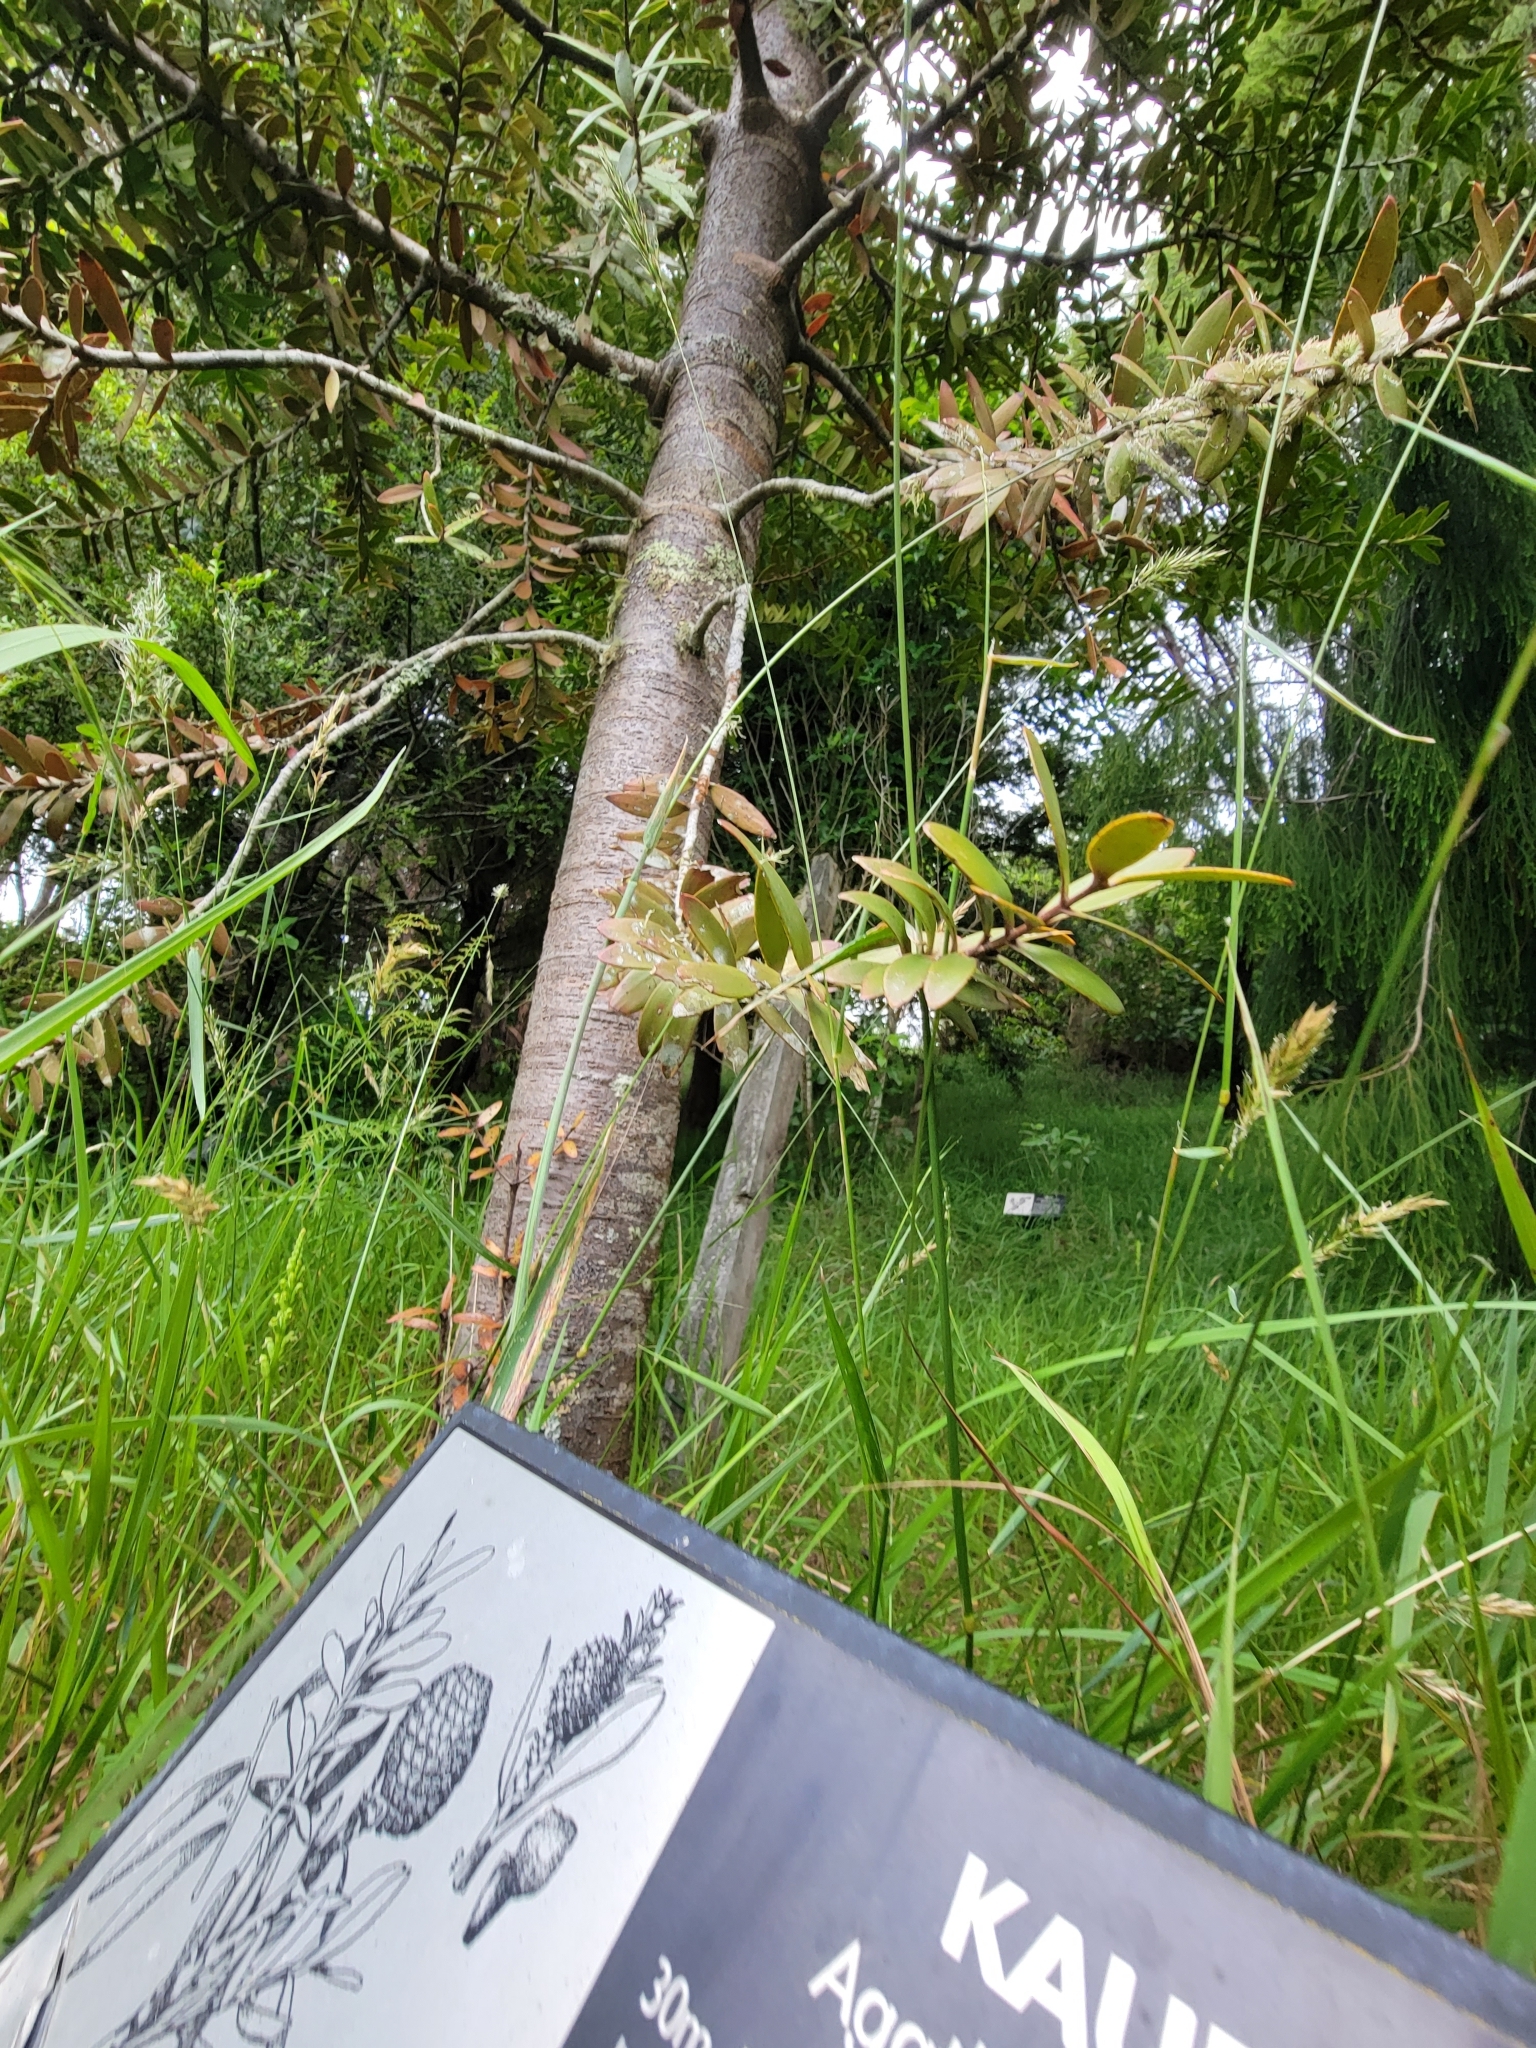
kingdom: Plantae
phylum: Tracheophyta
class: Pinopsida
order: Pinales
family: Araucariaceae
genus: Agathis
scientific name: Agathis australis
